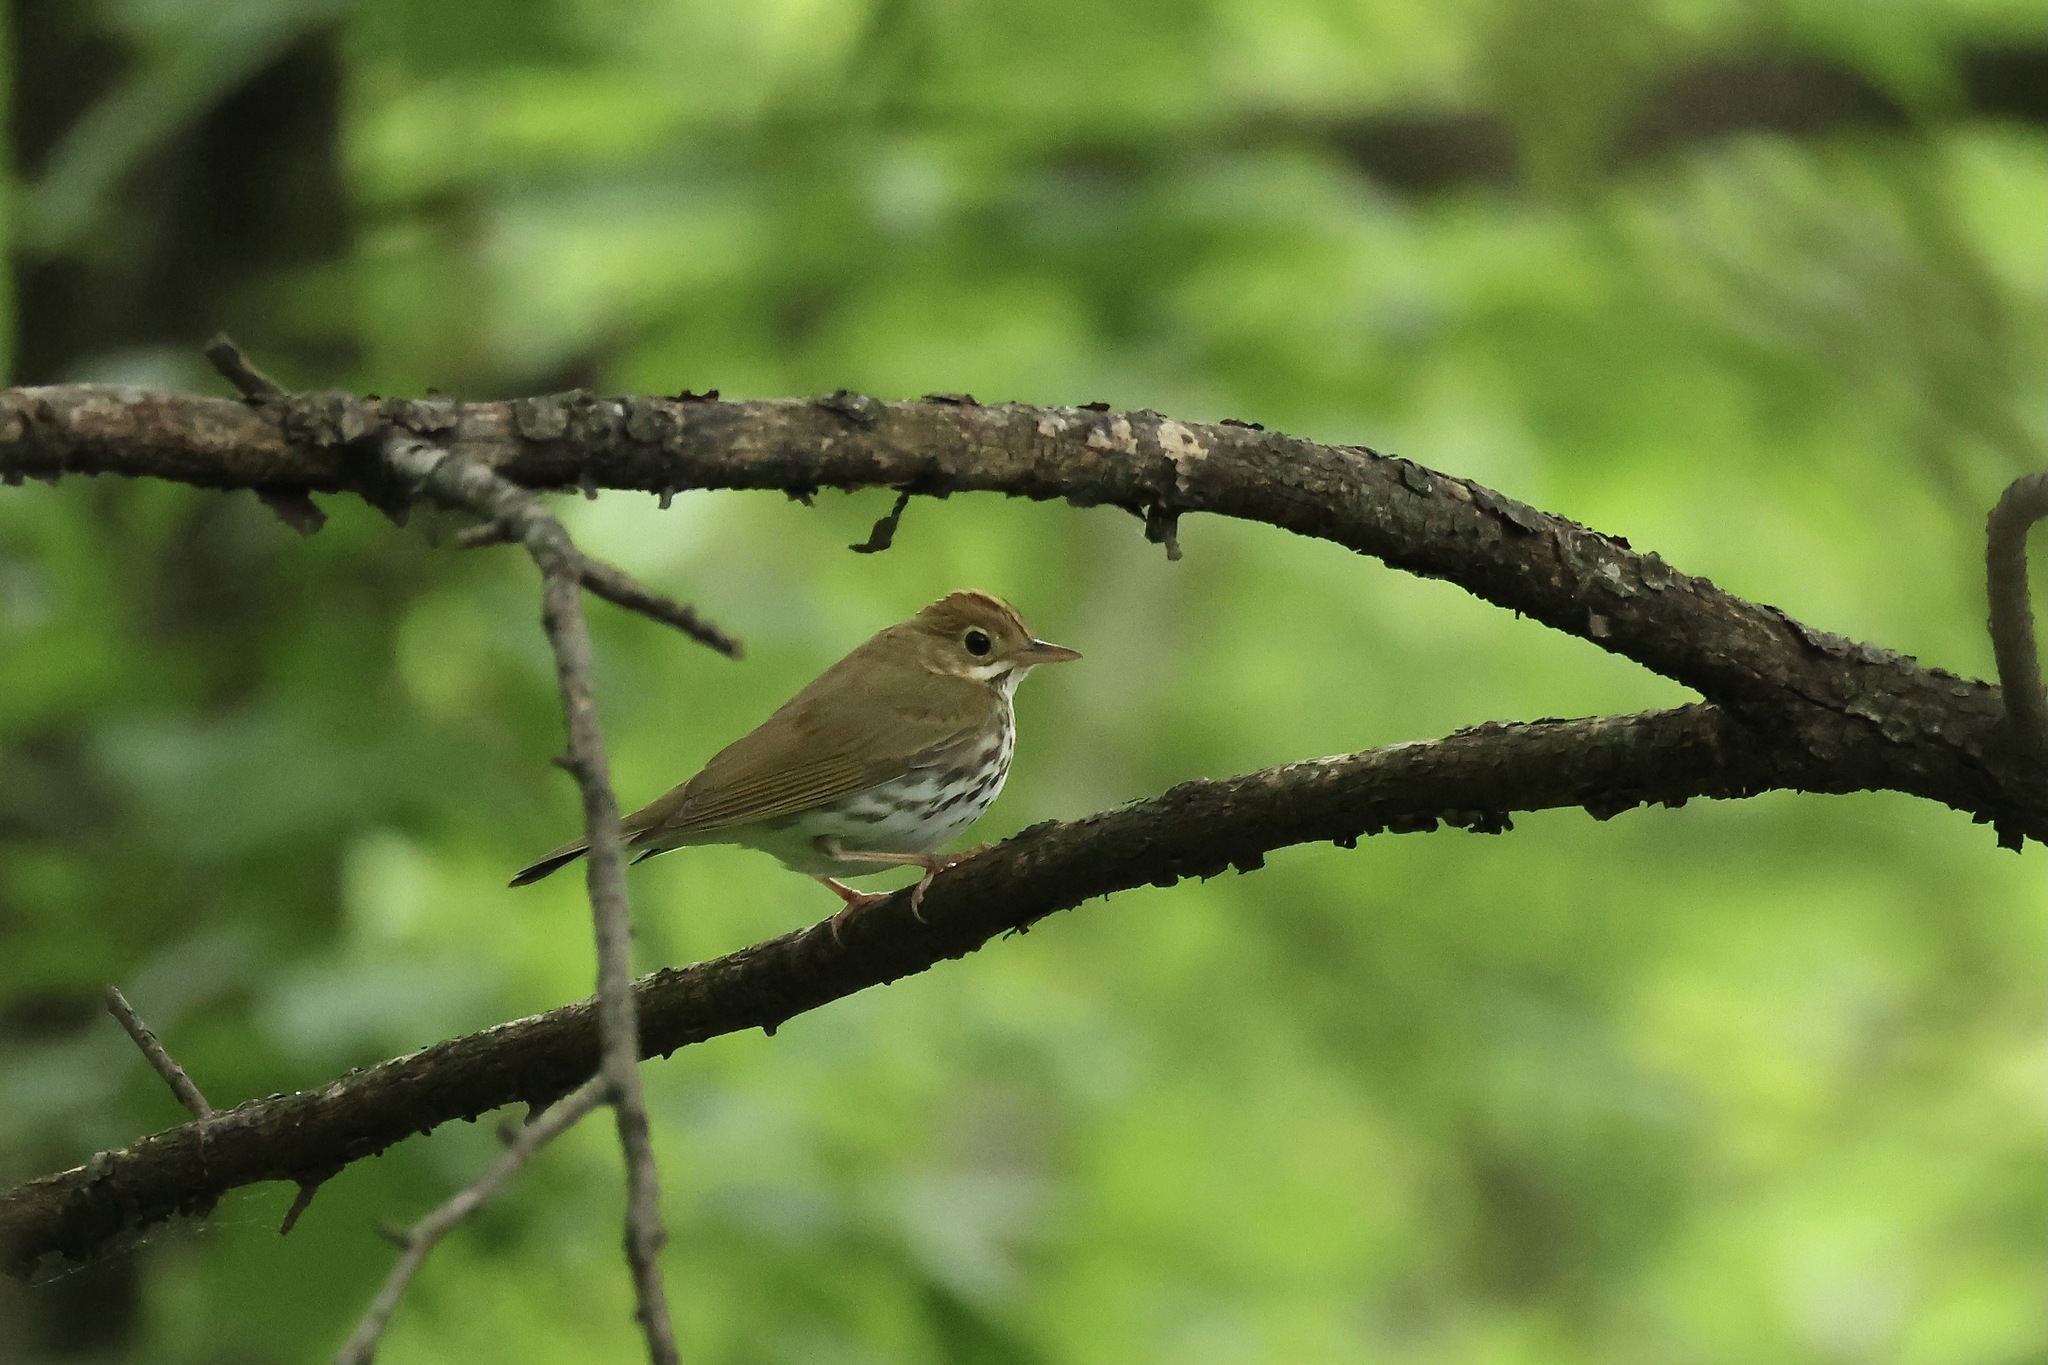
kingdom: Animalia
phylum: Chordata
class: Aves
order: Passeriformes
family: Parulidae
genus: Seiurus
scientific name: Seiurus aurocapilla
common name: Ovenbird
